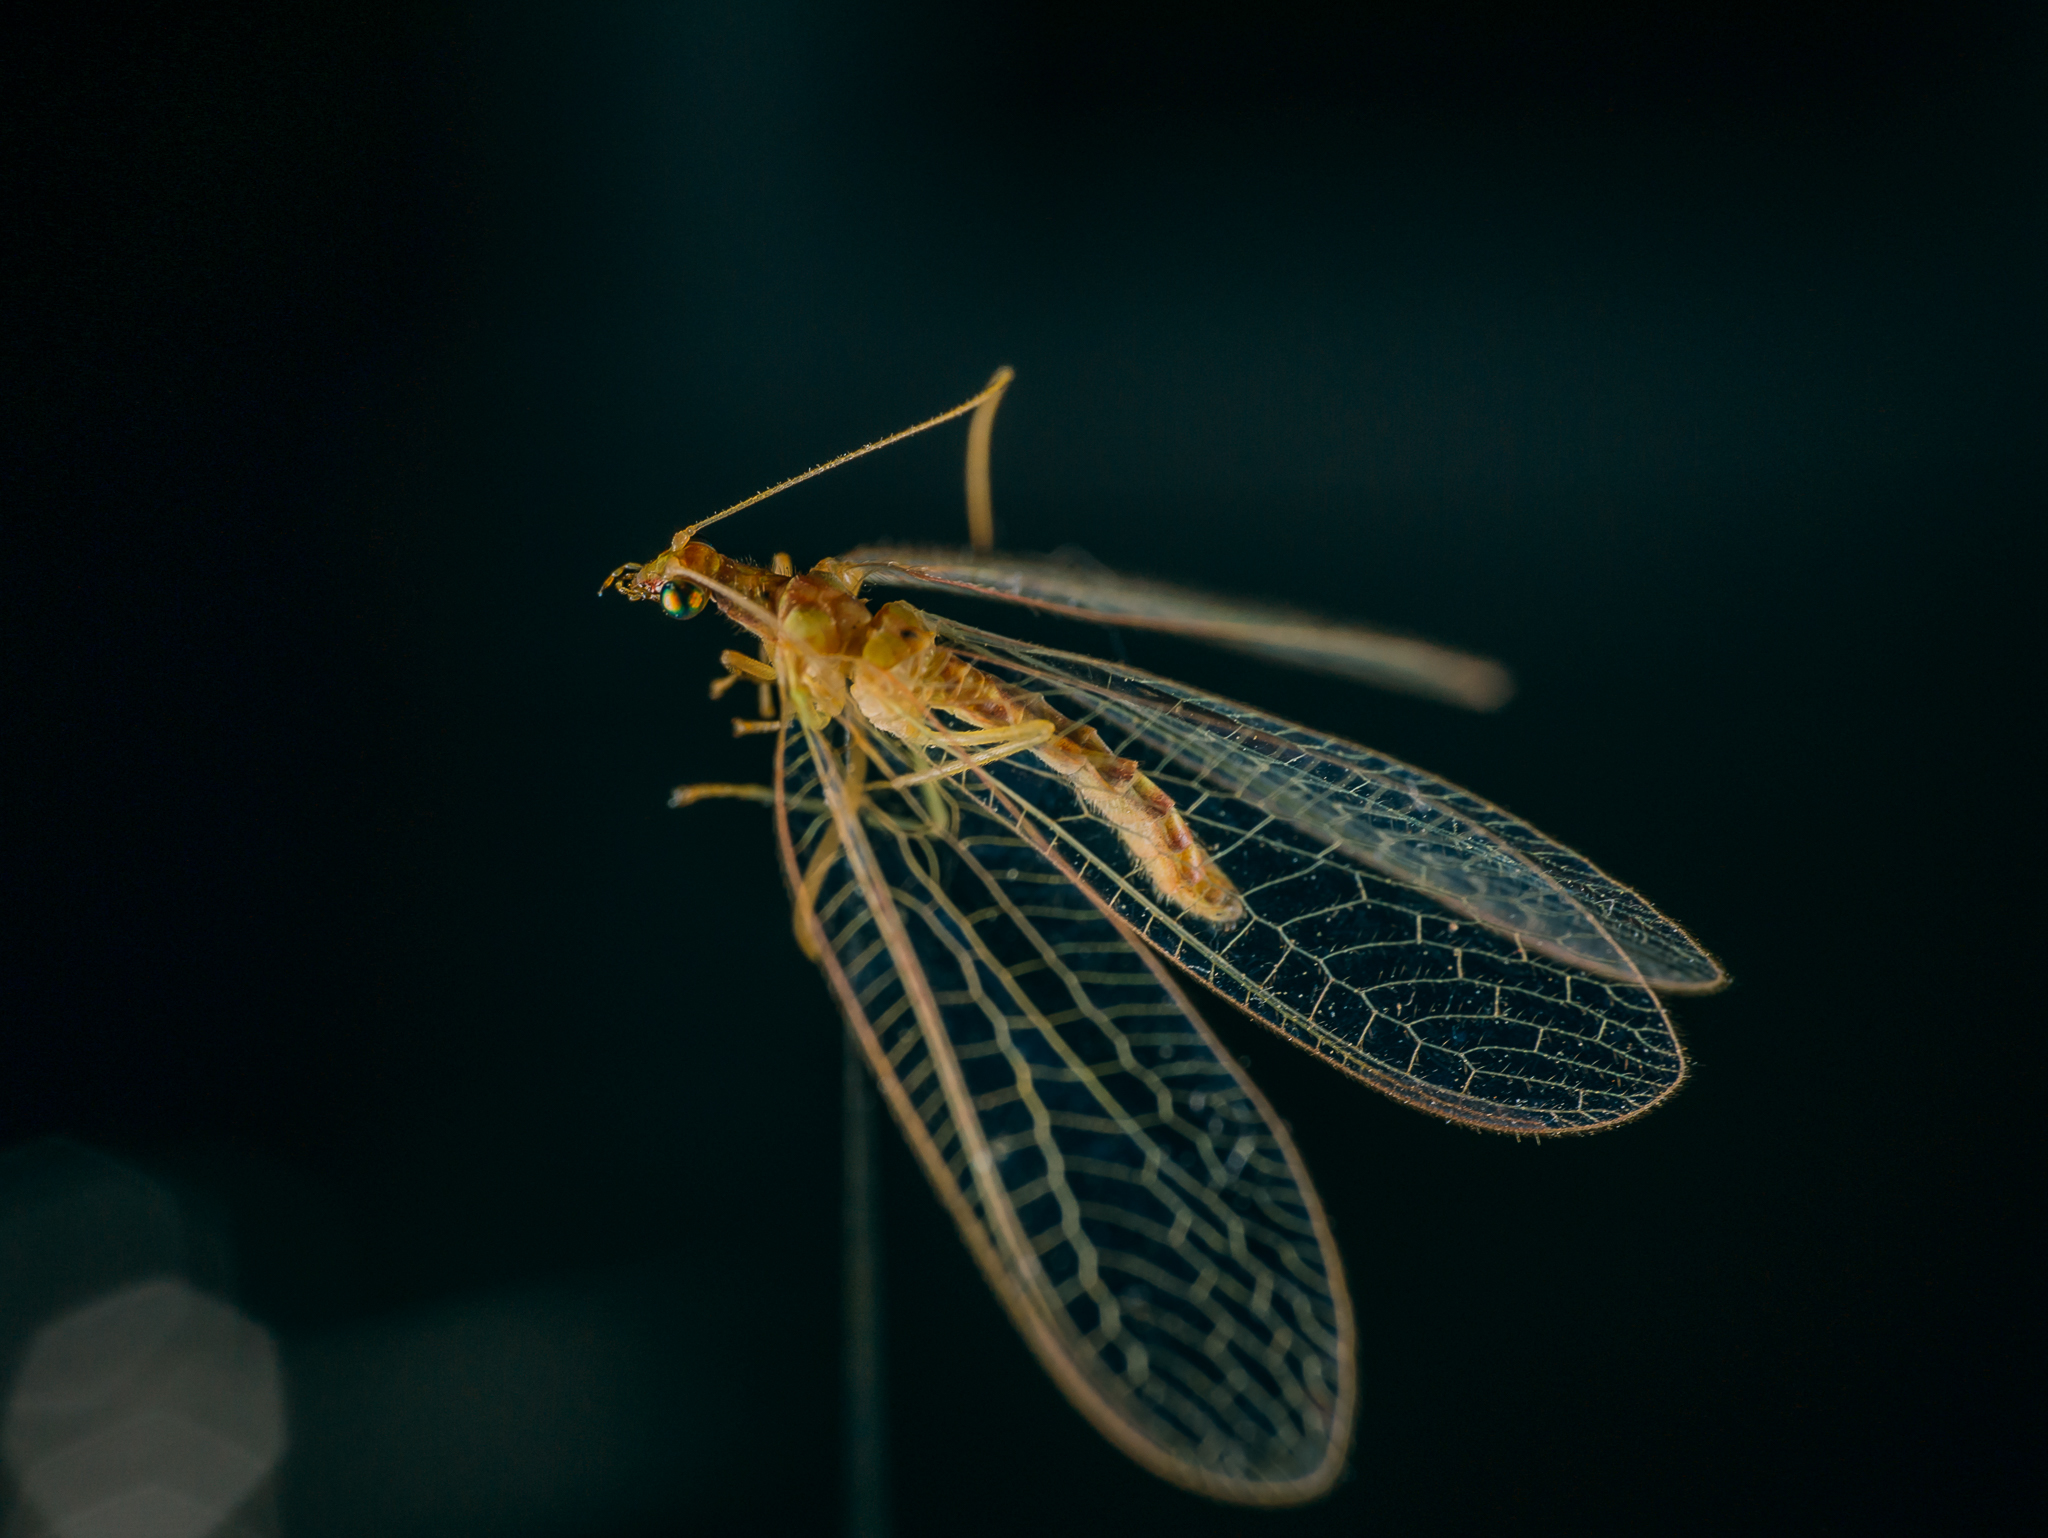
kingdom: Animalia
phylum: Arthropoda
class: Insecta
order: Neuroptera
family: Chrysopidae
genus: Chrysoperla
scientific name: Chrysoperla
